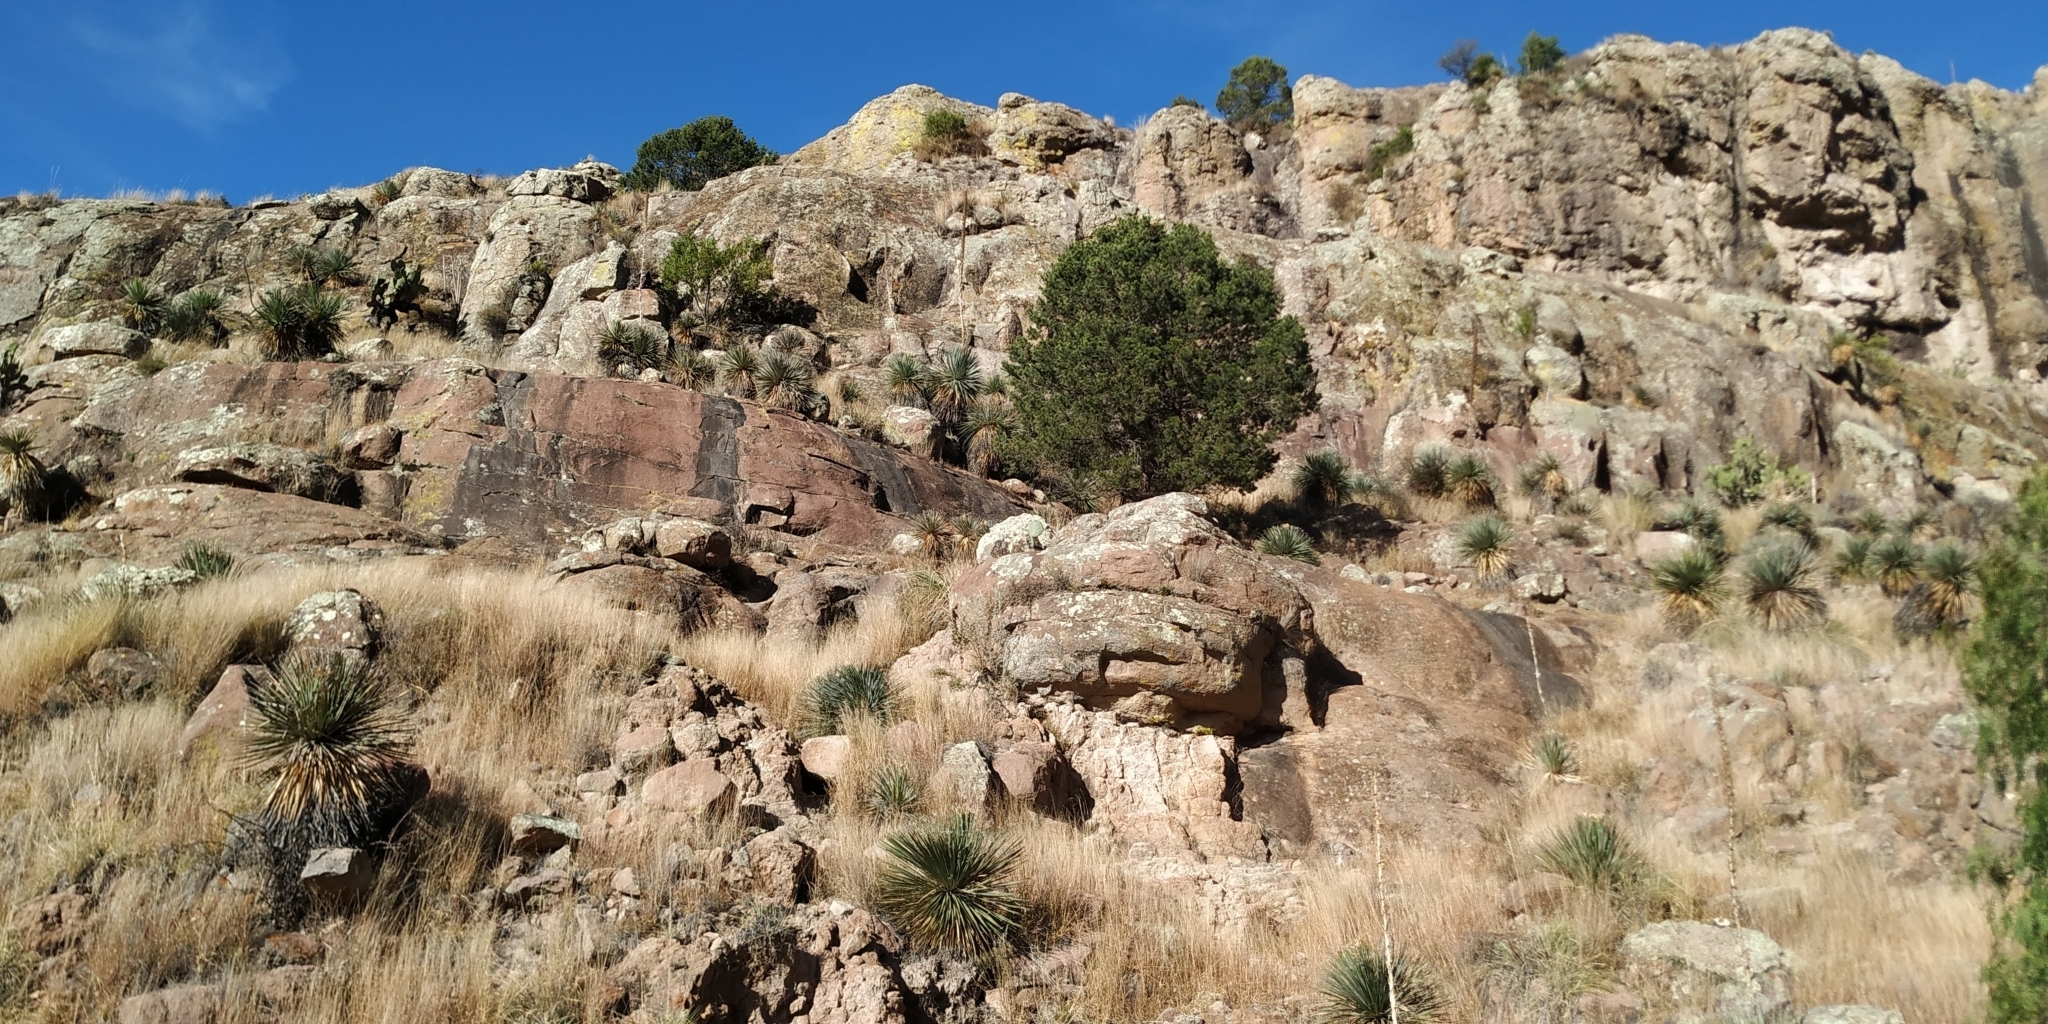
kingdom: Plantae
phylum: Tracheophyta
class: Pinopsida
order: Pinales
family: Pinaceae
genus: Pinus
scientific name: Pinus cembroides
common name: Mexican nut pine
